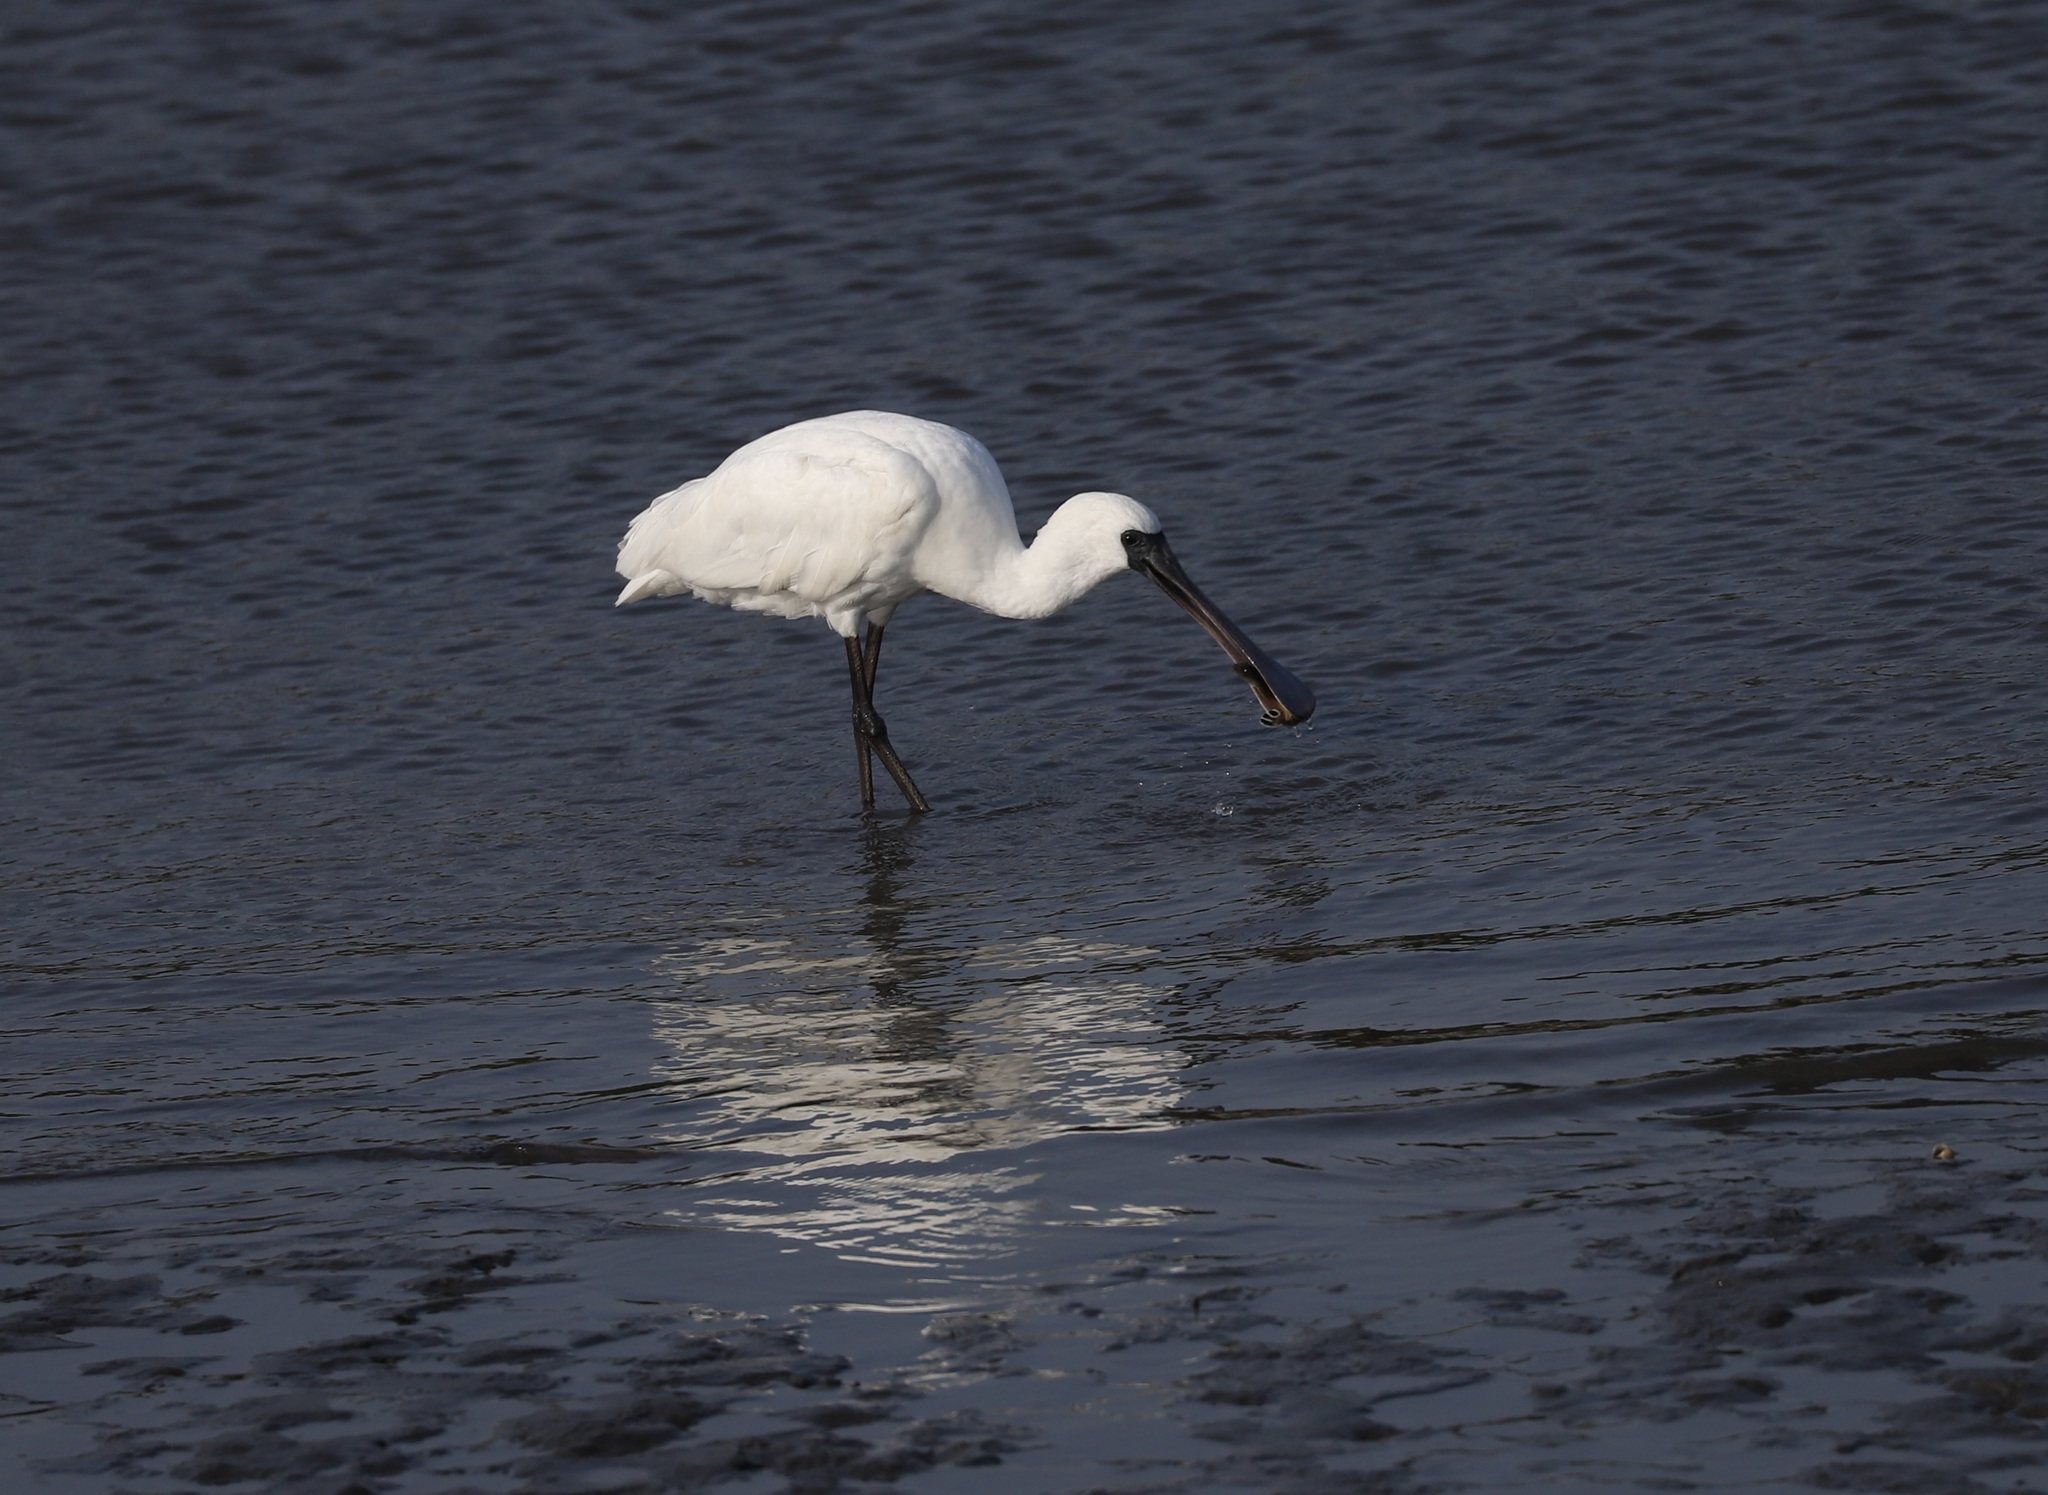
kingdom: Animalia
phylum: Chordata
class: Aves
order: Pelecaniformes
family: Threskiornithidae
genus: Platalea
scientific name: Platalea minor
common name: Black-faced spoonbill
